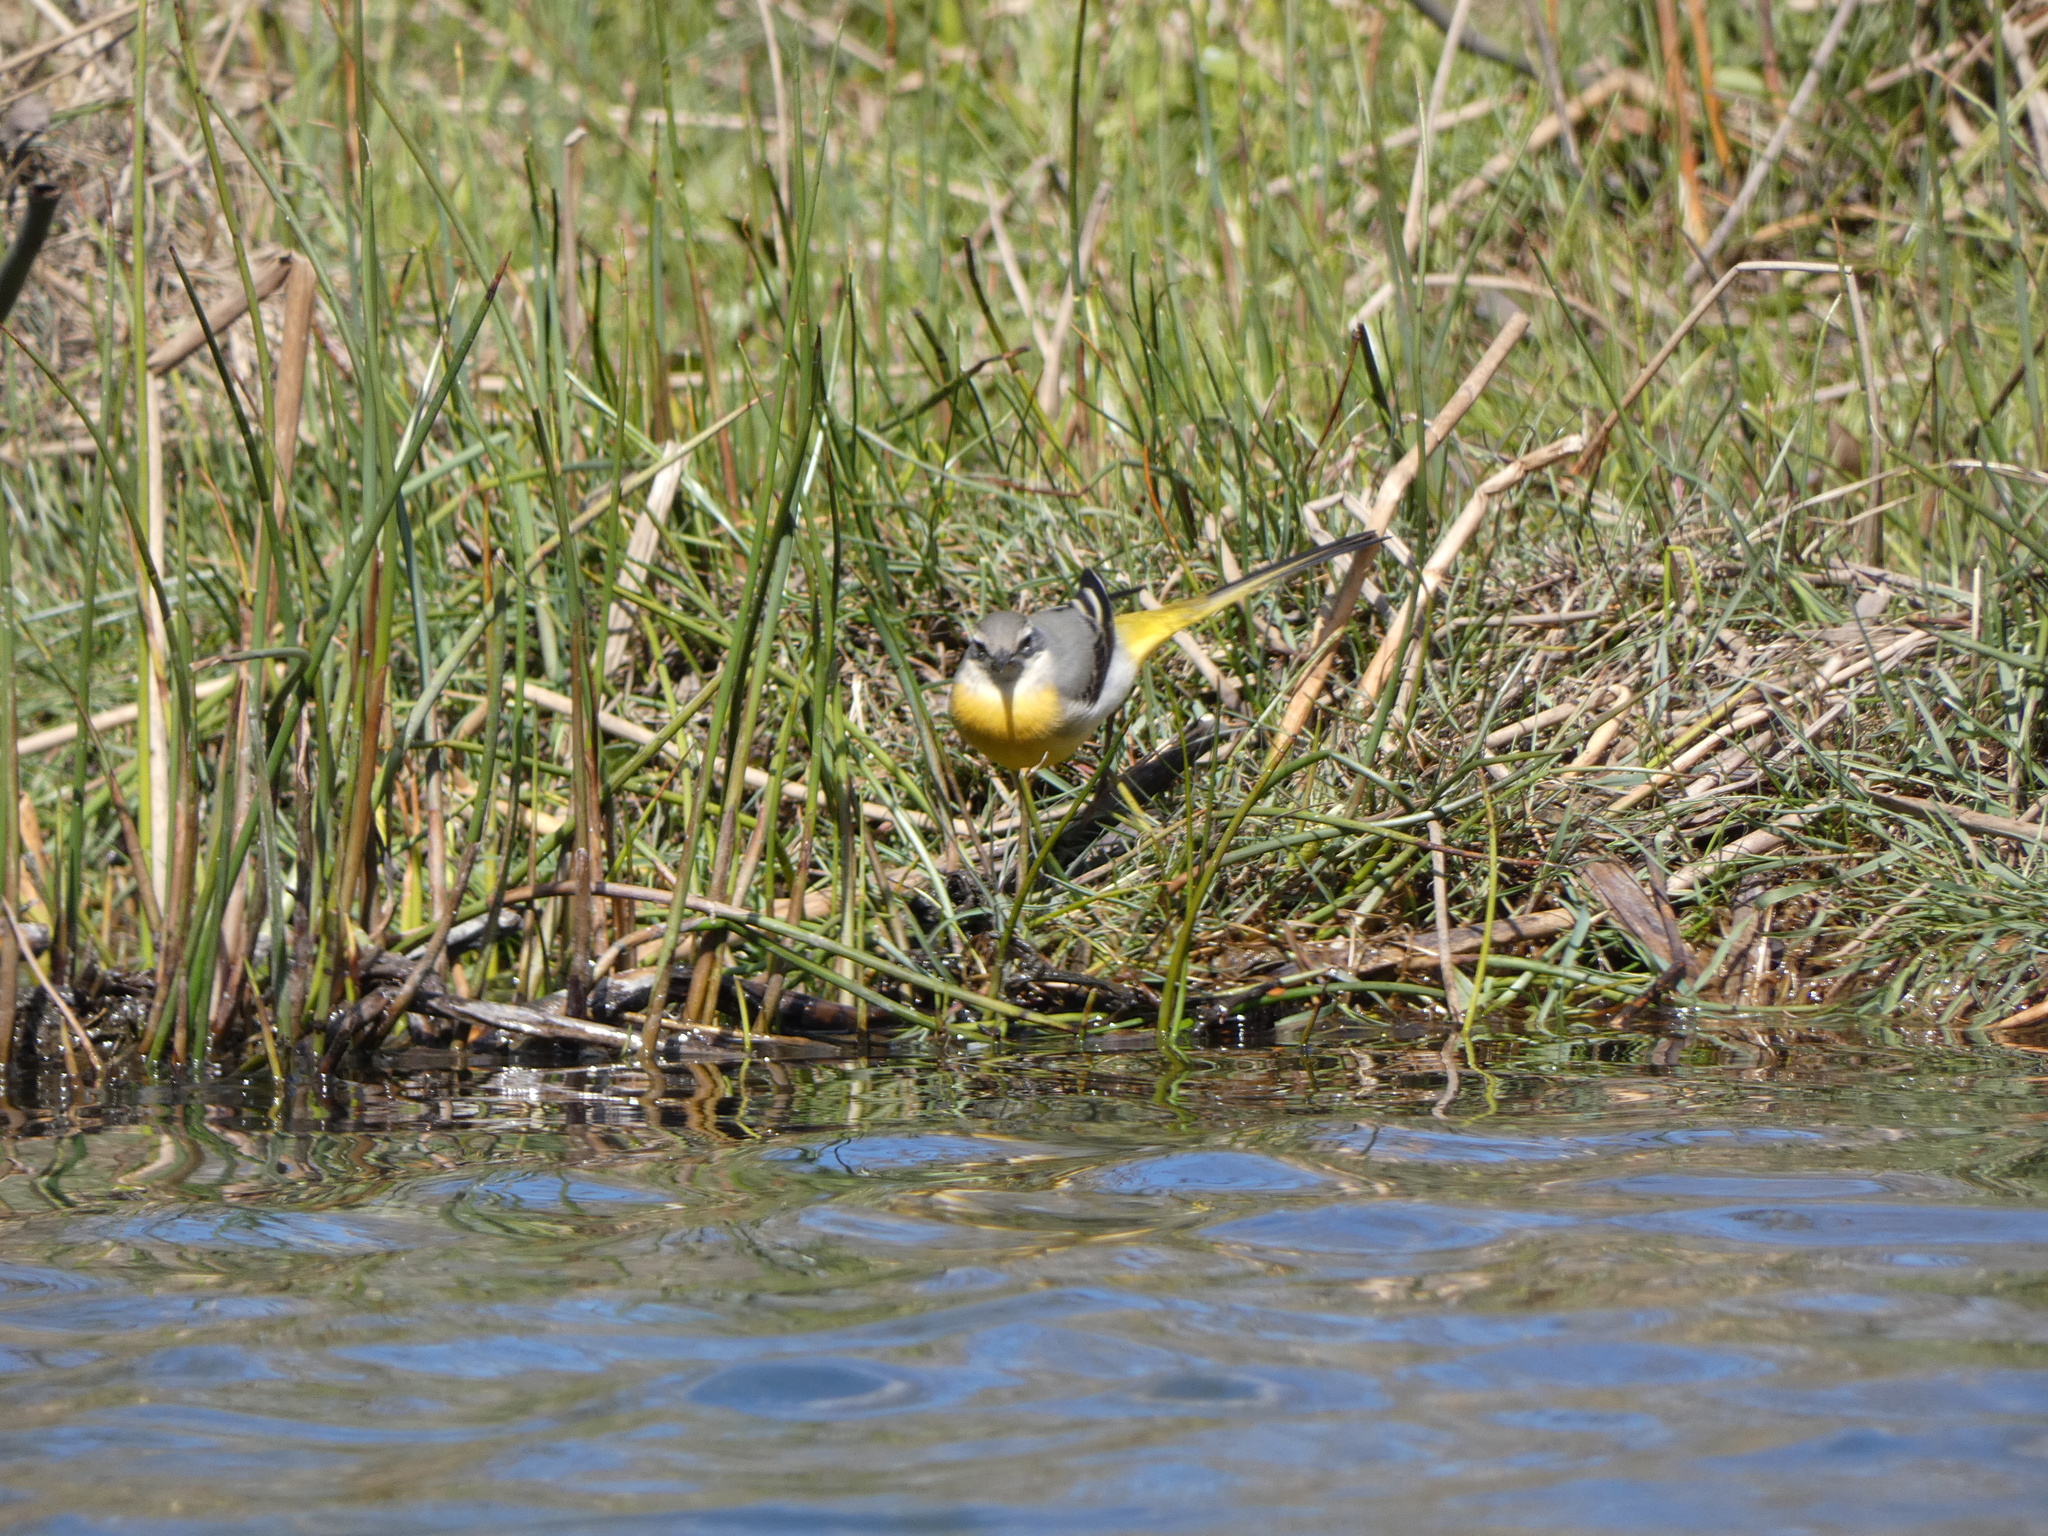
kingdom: Animalia
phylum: Chordata
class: Aves
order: Passeriformes
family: Motacillidae
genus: Motacilla
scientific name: Motacilla cinerea
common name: Grey wagtail
